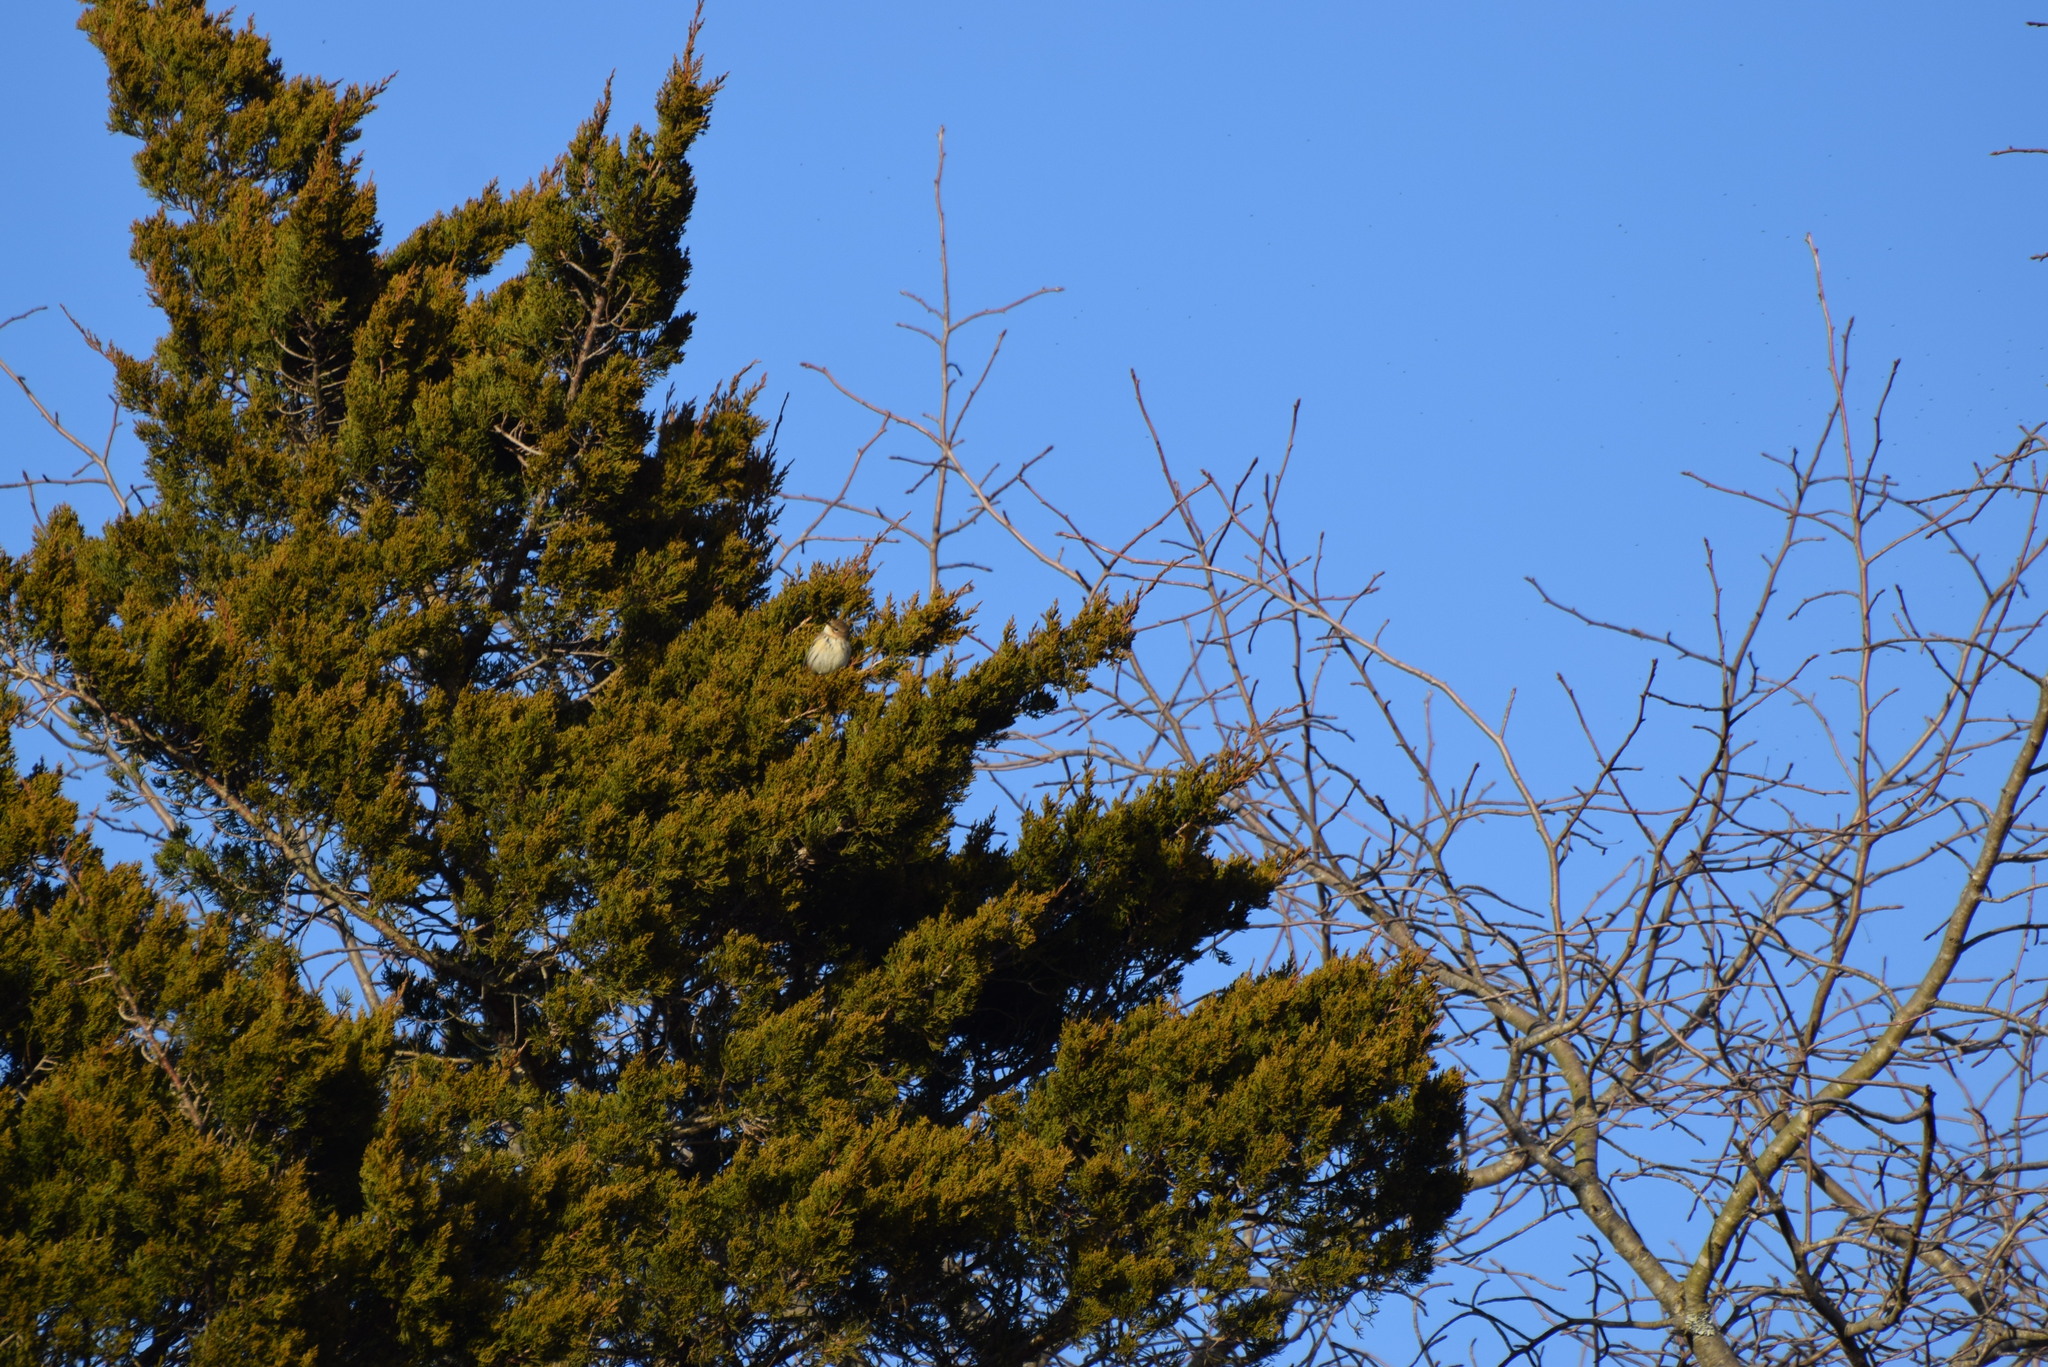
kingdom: Animalia
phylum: Chordata
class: Aves
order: Passeriformes
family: Parulidae
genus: Setophaga
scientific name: Setophaga coronata
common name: Myrtle warbler
